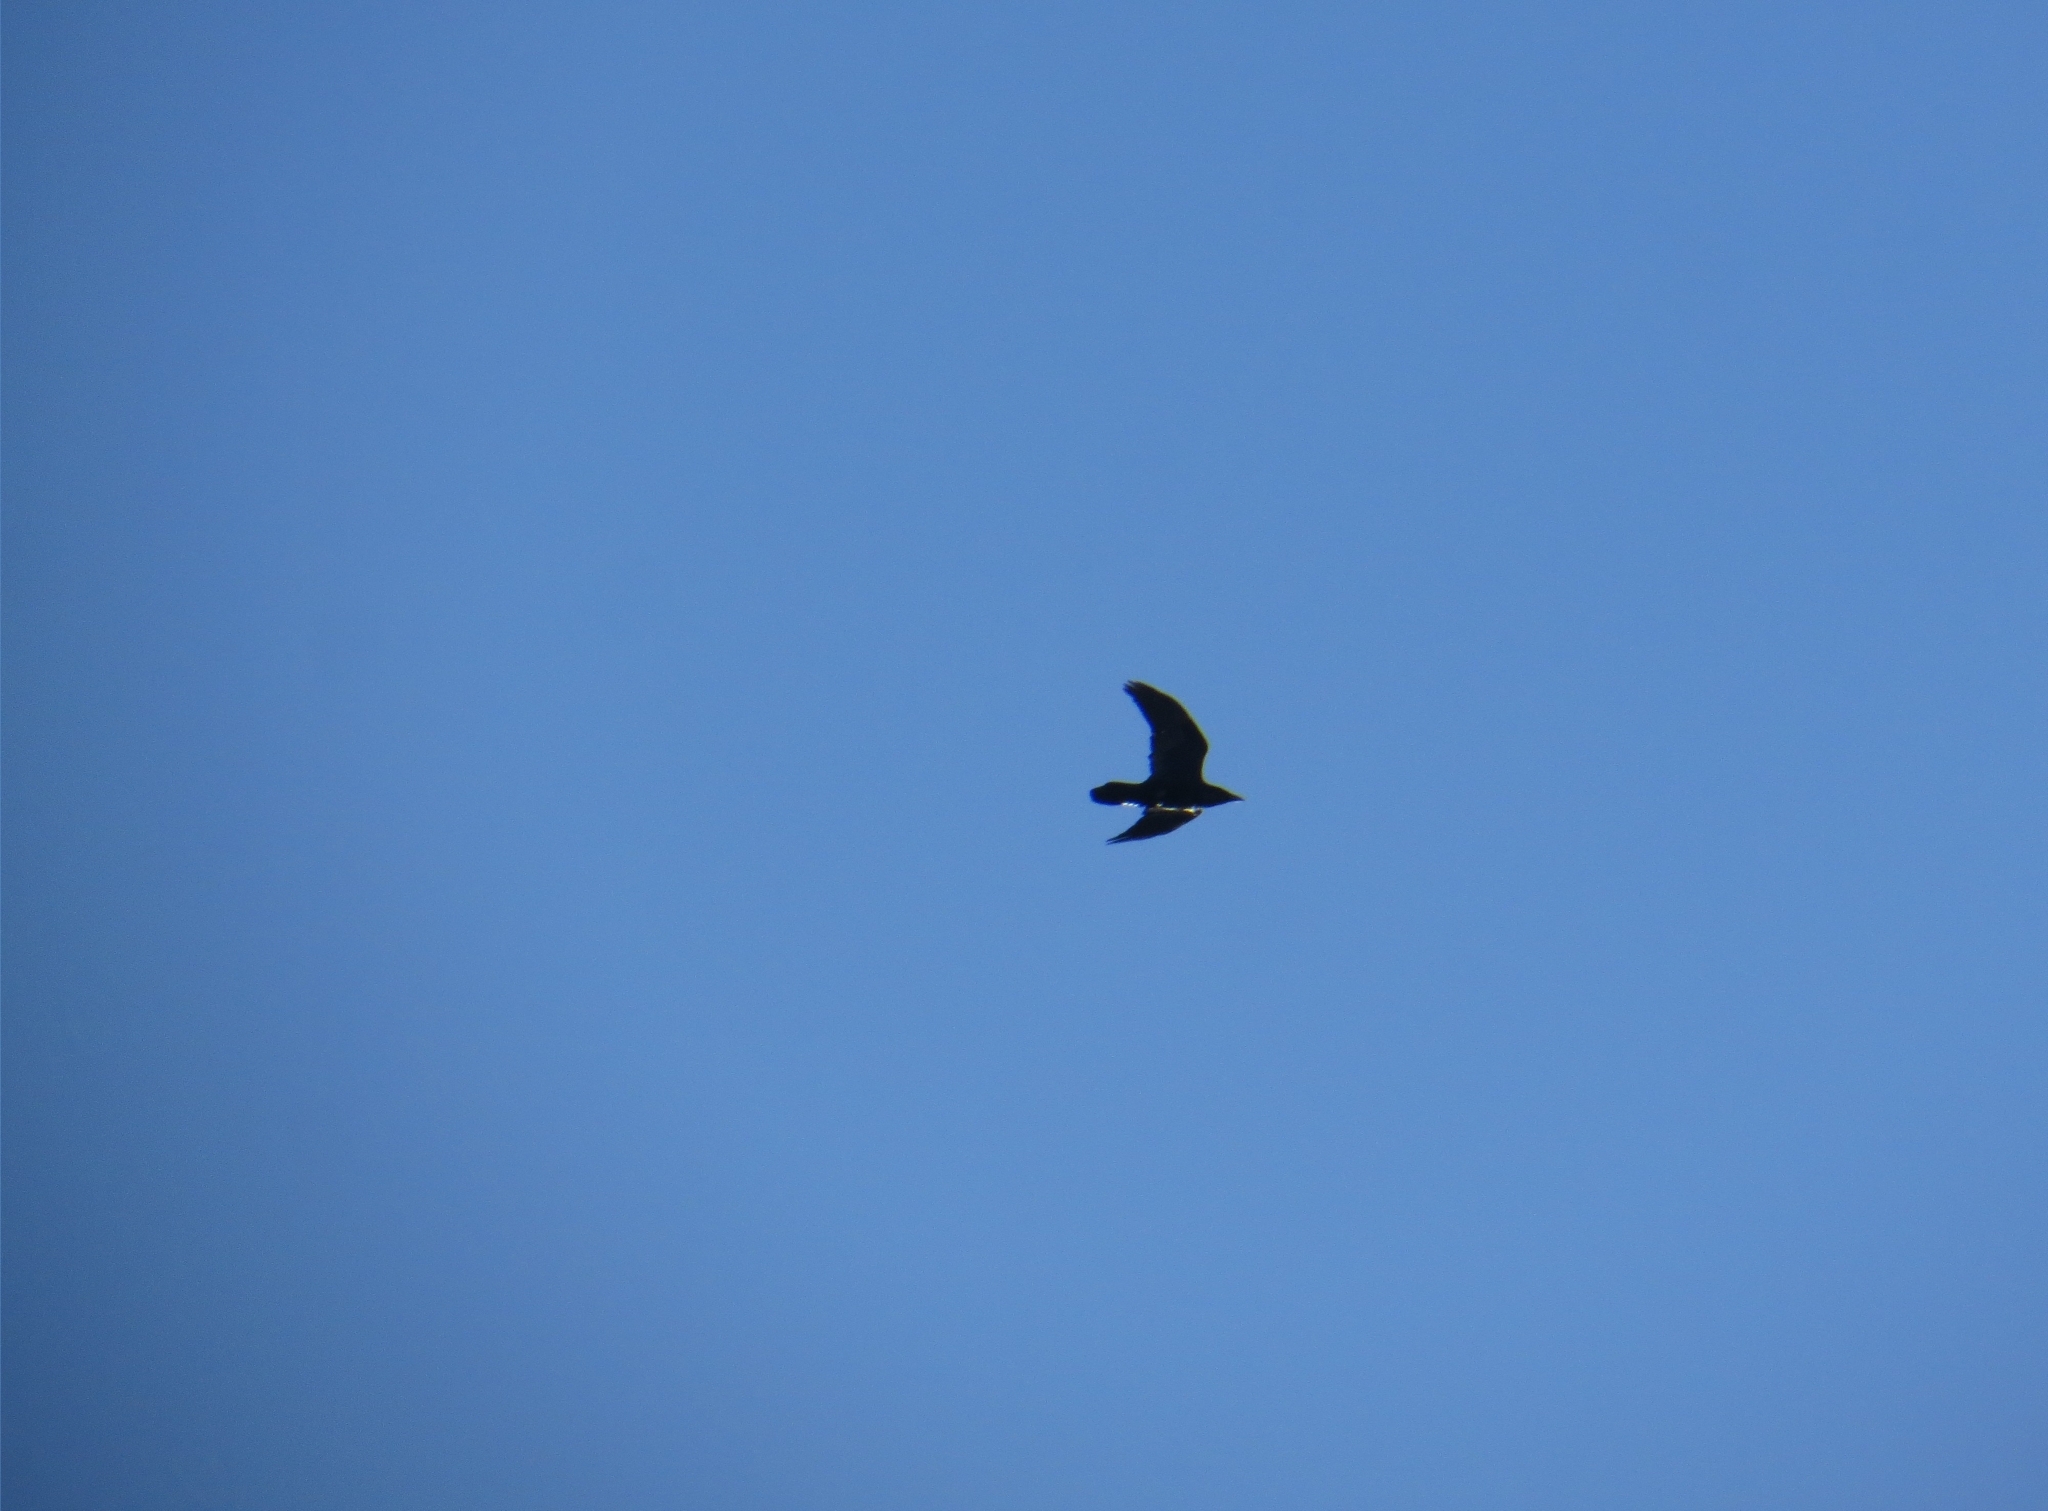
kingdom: Animalia
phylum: Chordata
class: Aves
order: Passeriformes
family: Corvidae
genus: Corvus
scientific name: Corvus corax
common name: Common raven
